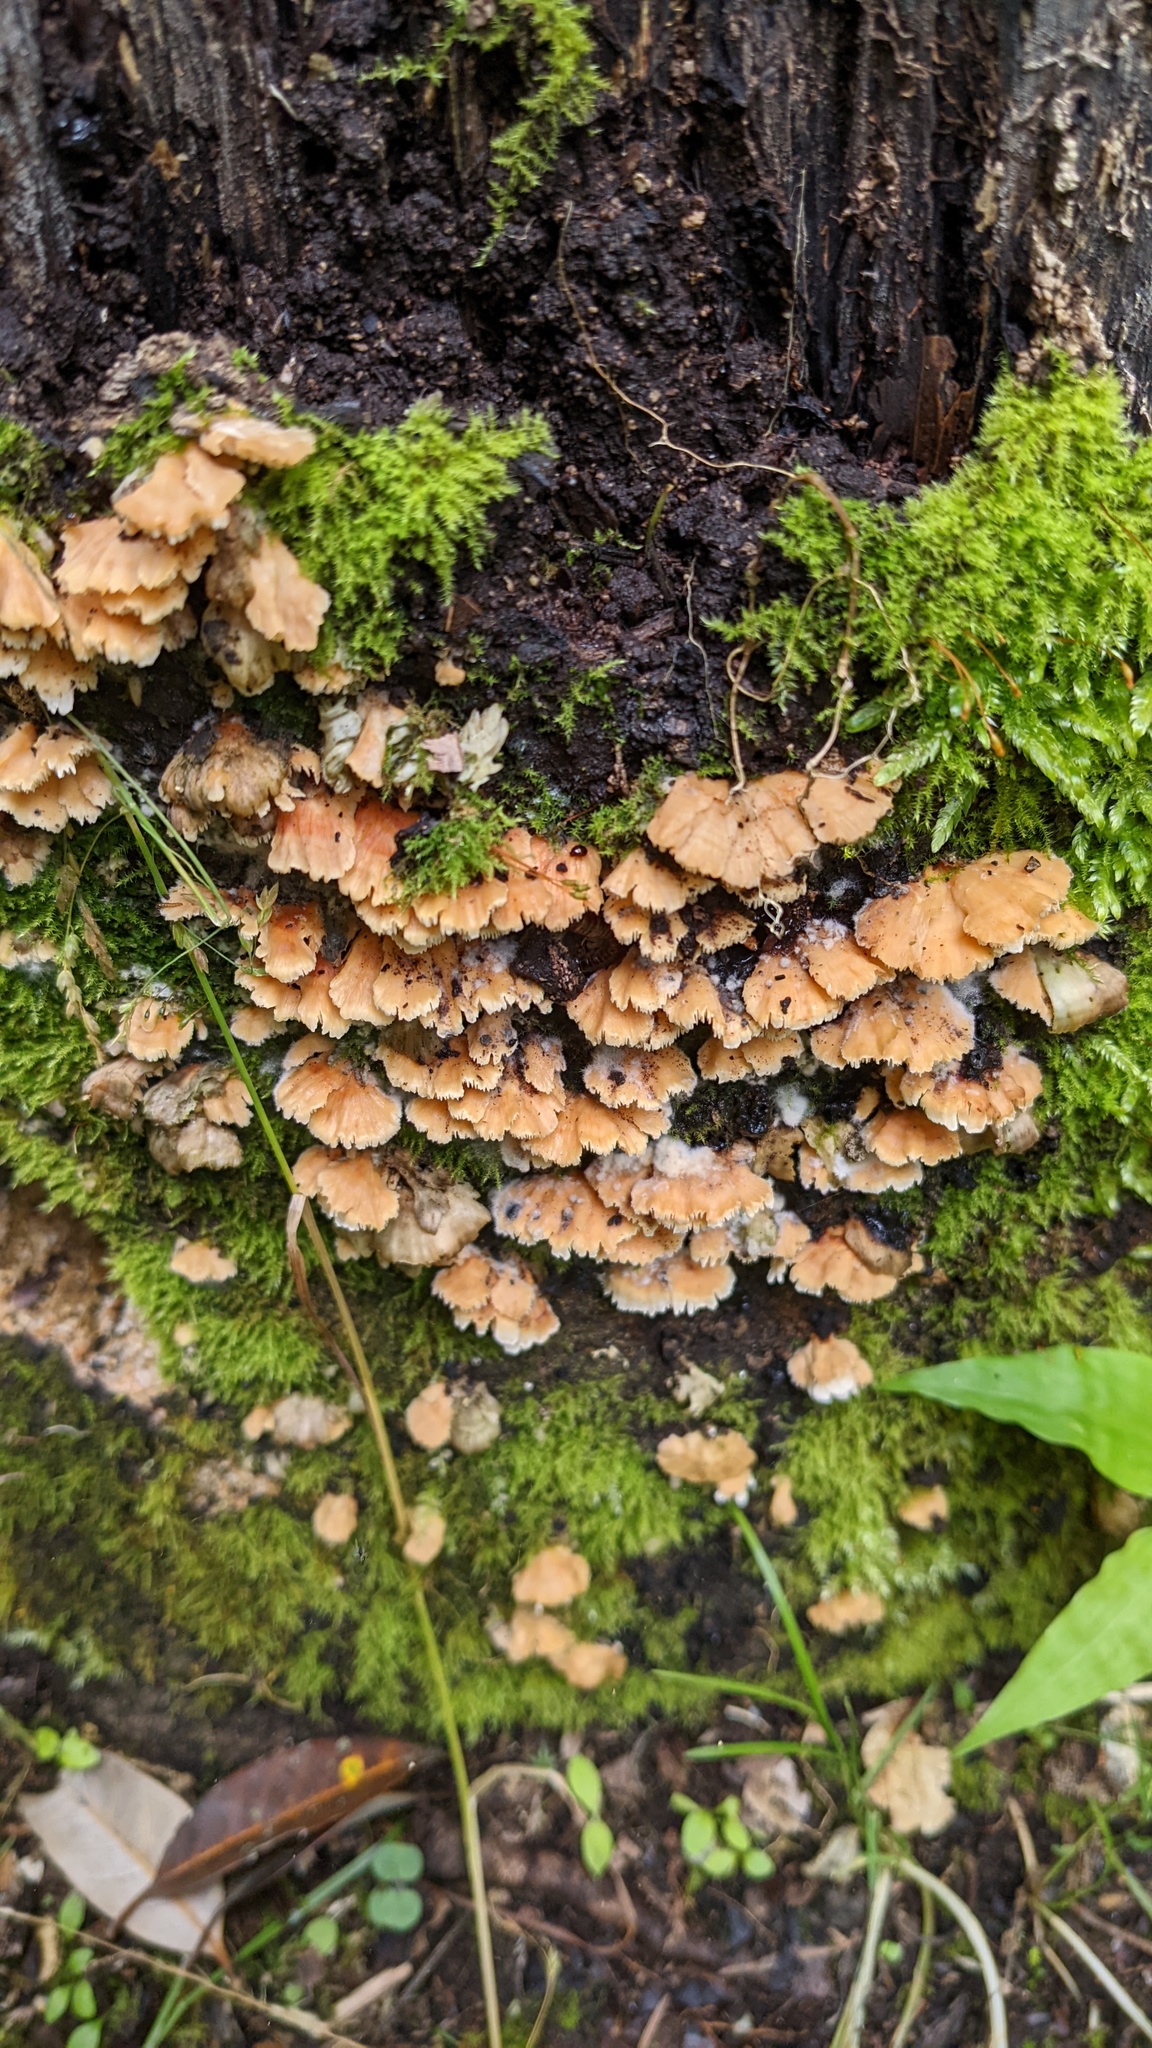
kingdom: Fungi
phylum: Basidiomycota
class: Agaricomycetes
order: Polyporales
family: Irpicaceae
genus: Irpex
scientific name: Irpex consors
